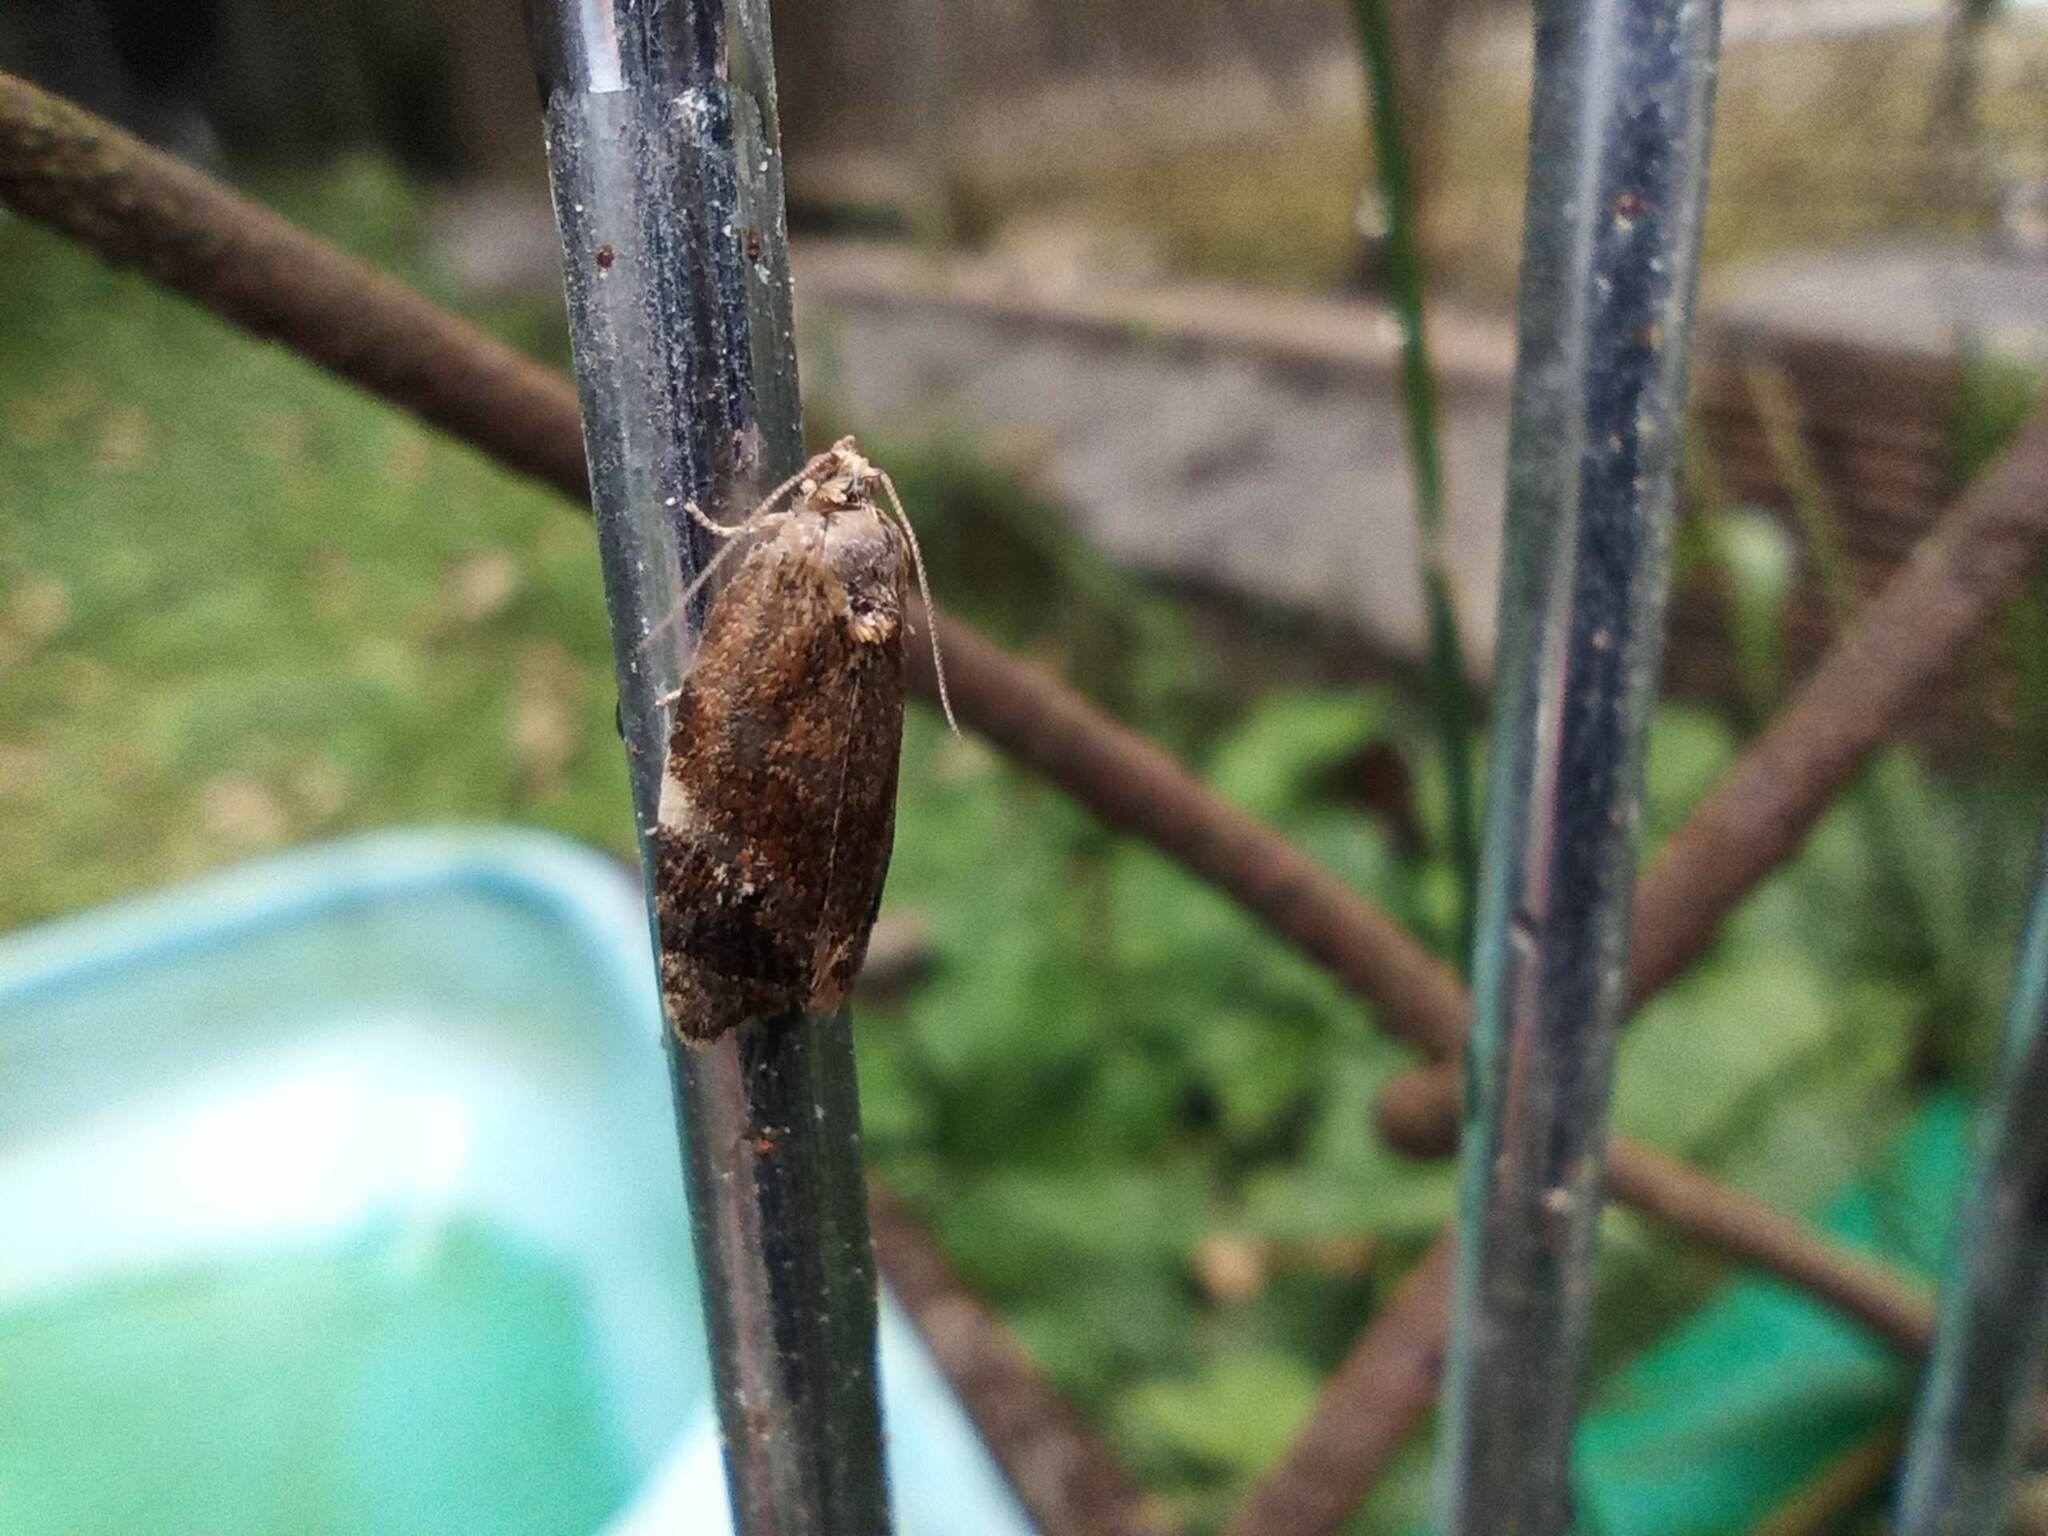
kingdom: Animalia
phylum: Arthropoda
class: Insecta
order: Lepidoptera
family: Tortricidae
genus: Ditula
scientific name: Ditula angustiorana
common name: Red-barred tortrix
